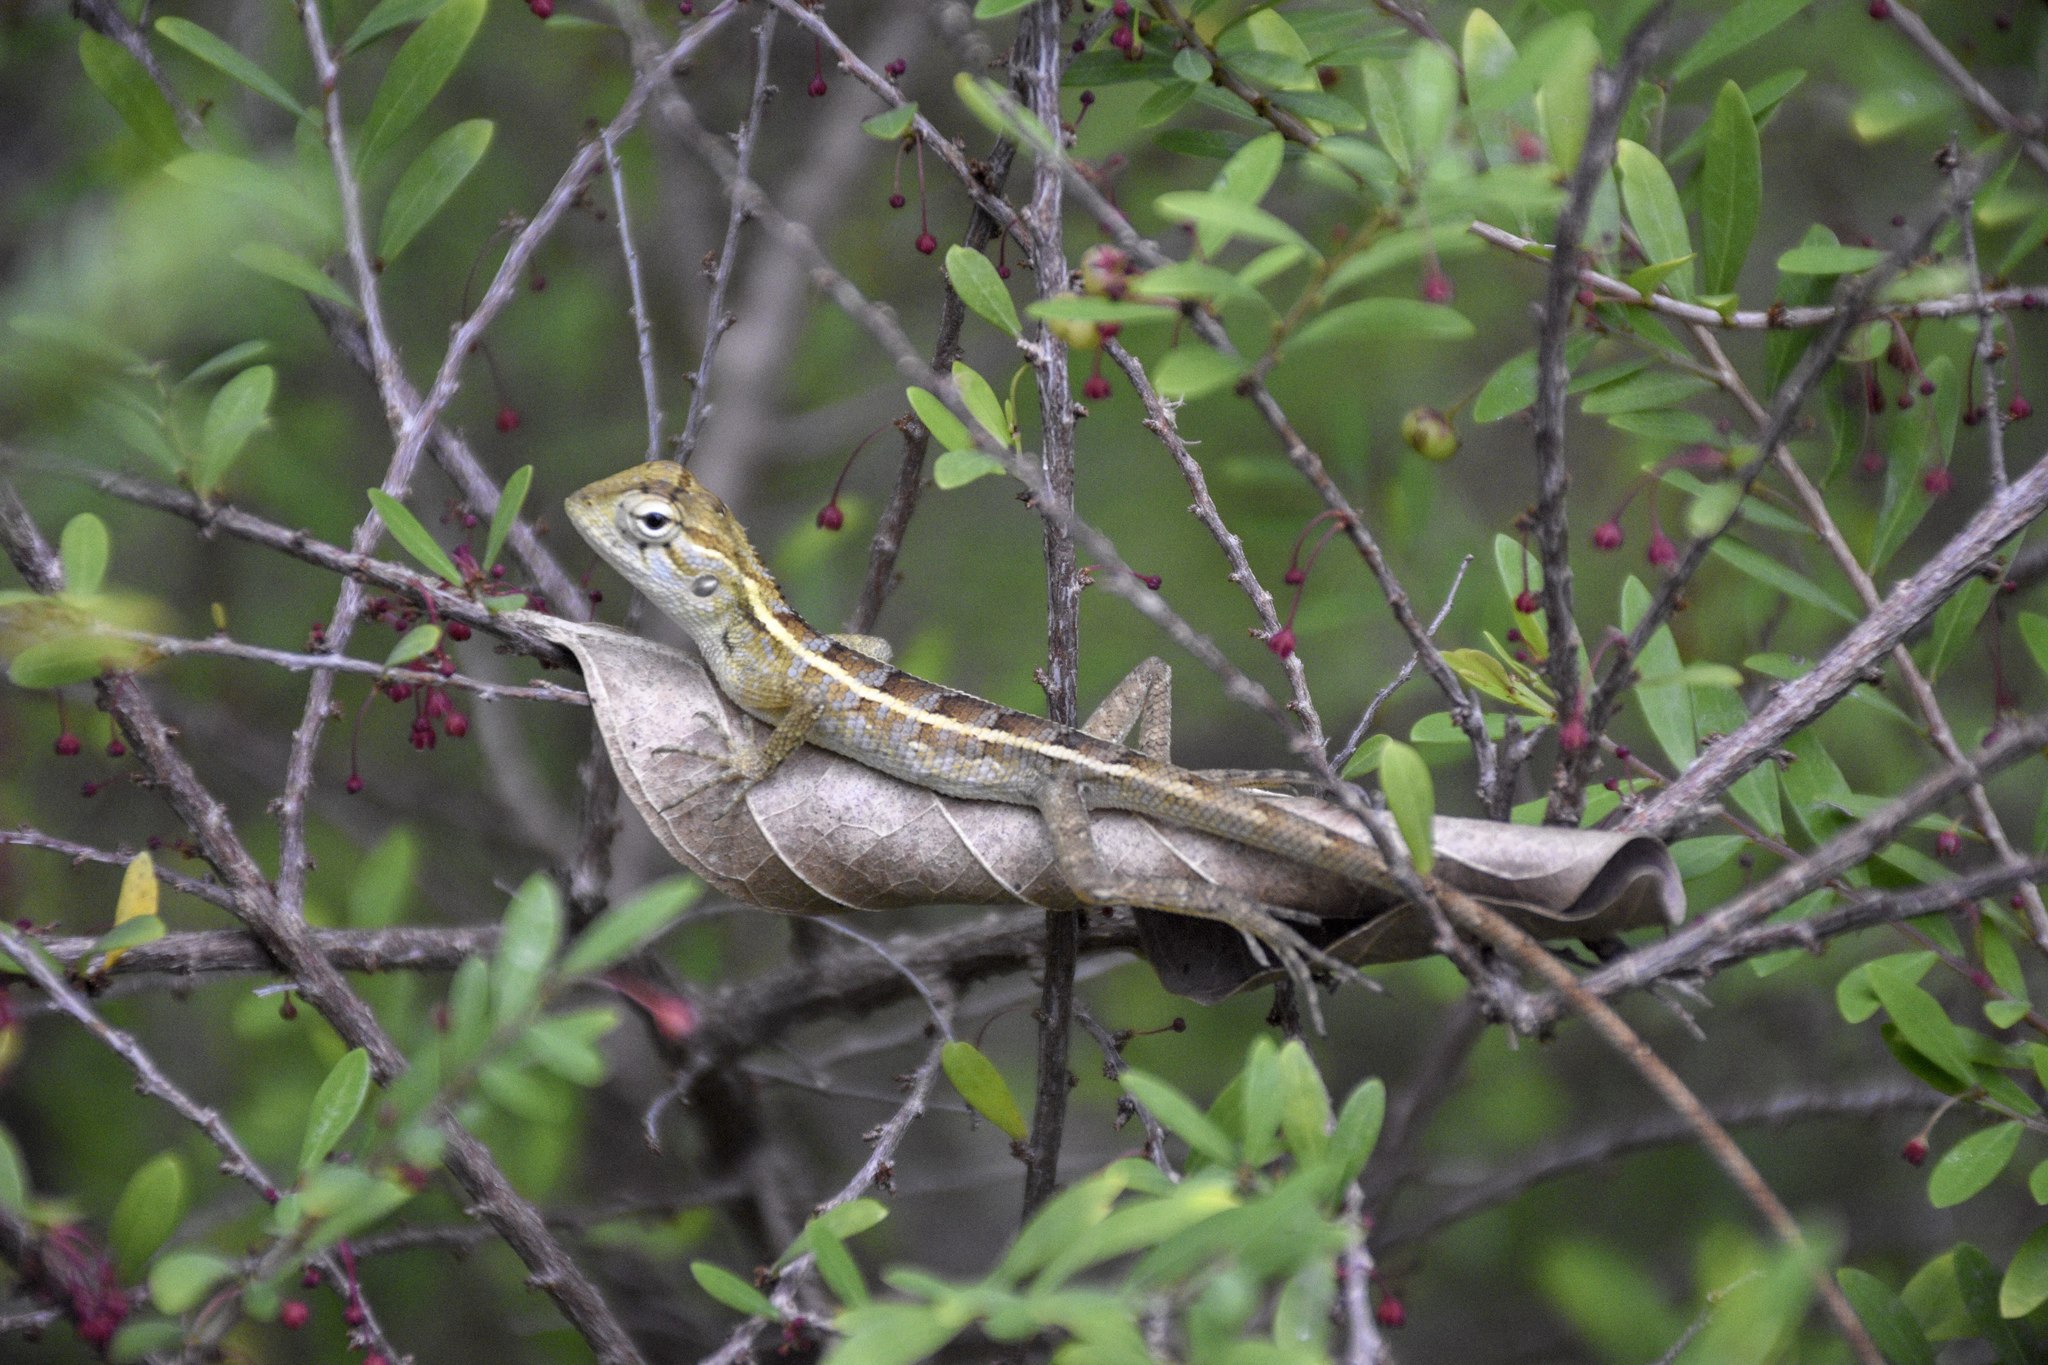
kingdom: Animalia
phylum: Chordata
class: Squamata
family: Agamidae
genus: Calotes
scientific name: Calotes versicolor
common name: Oriental garden lizard
